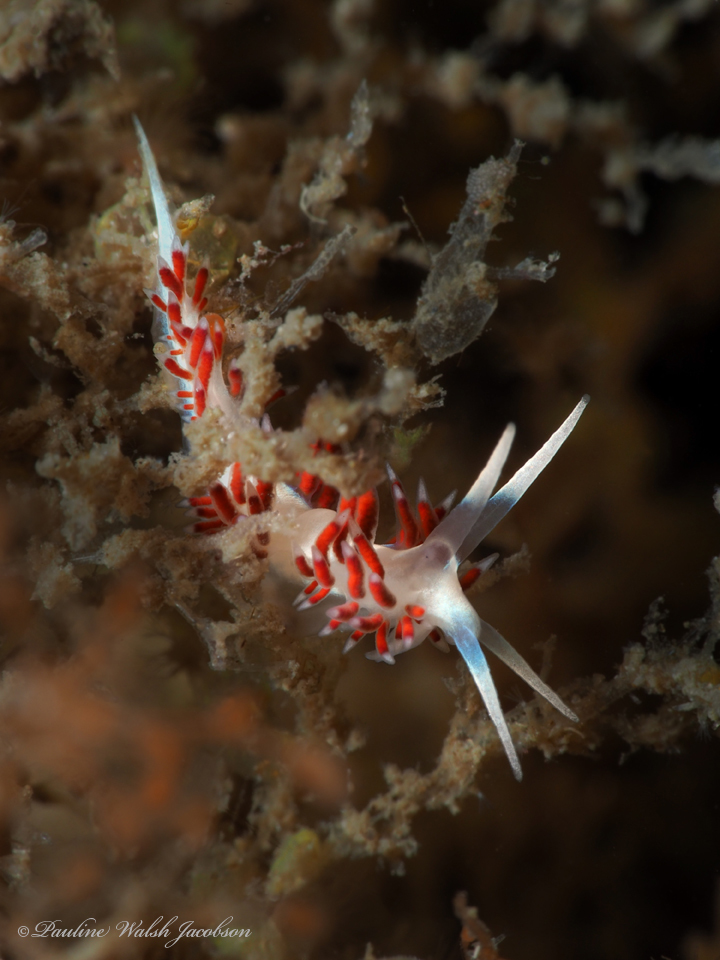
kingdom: Animalia
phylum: Mollusca
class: Gastropoda
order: Nudibranchia
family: Flabellinidae
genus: Flabellina
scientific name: Flabellina dushia
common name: Dushia flabellina
